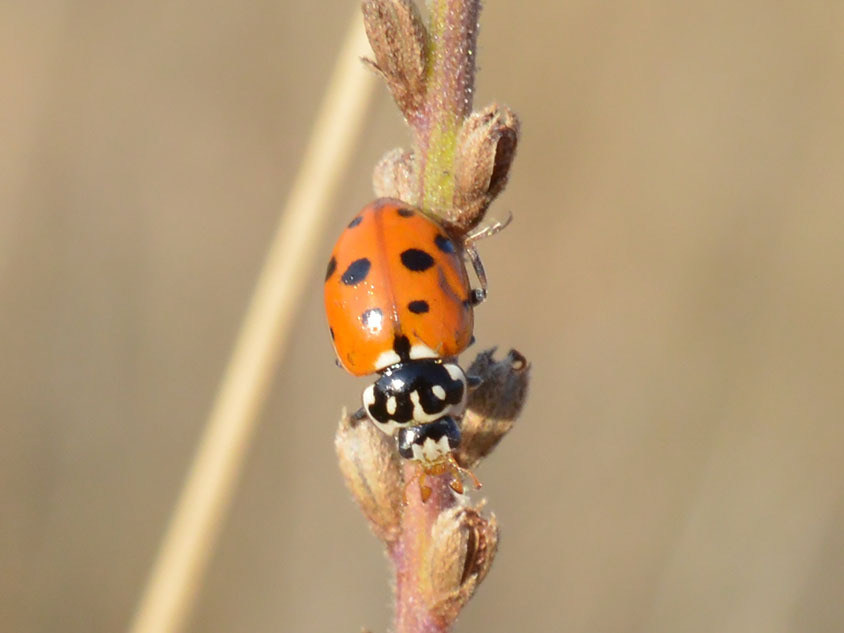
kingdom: Animalia
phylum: Arthropoda
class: Insecta
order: Coleoptera
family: Coccinellidae
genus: Hippodamia
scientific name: Hippodamia variegata
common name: Ladybird beetle
